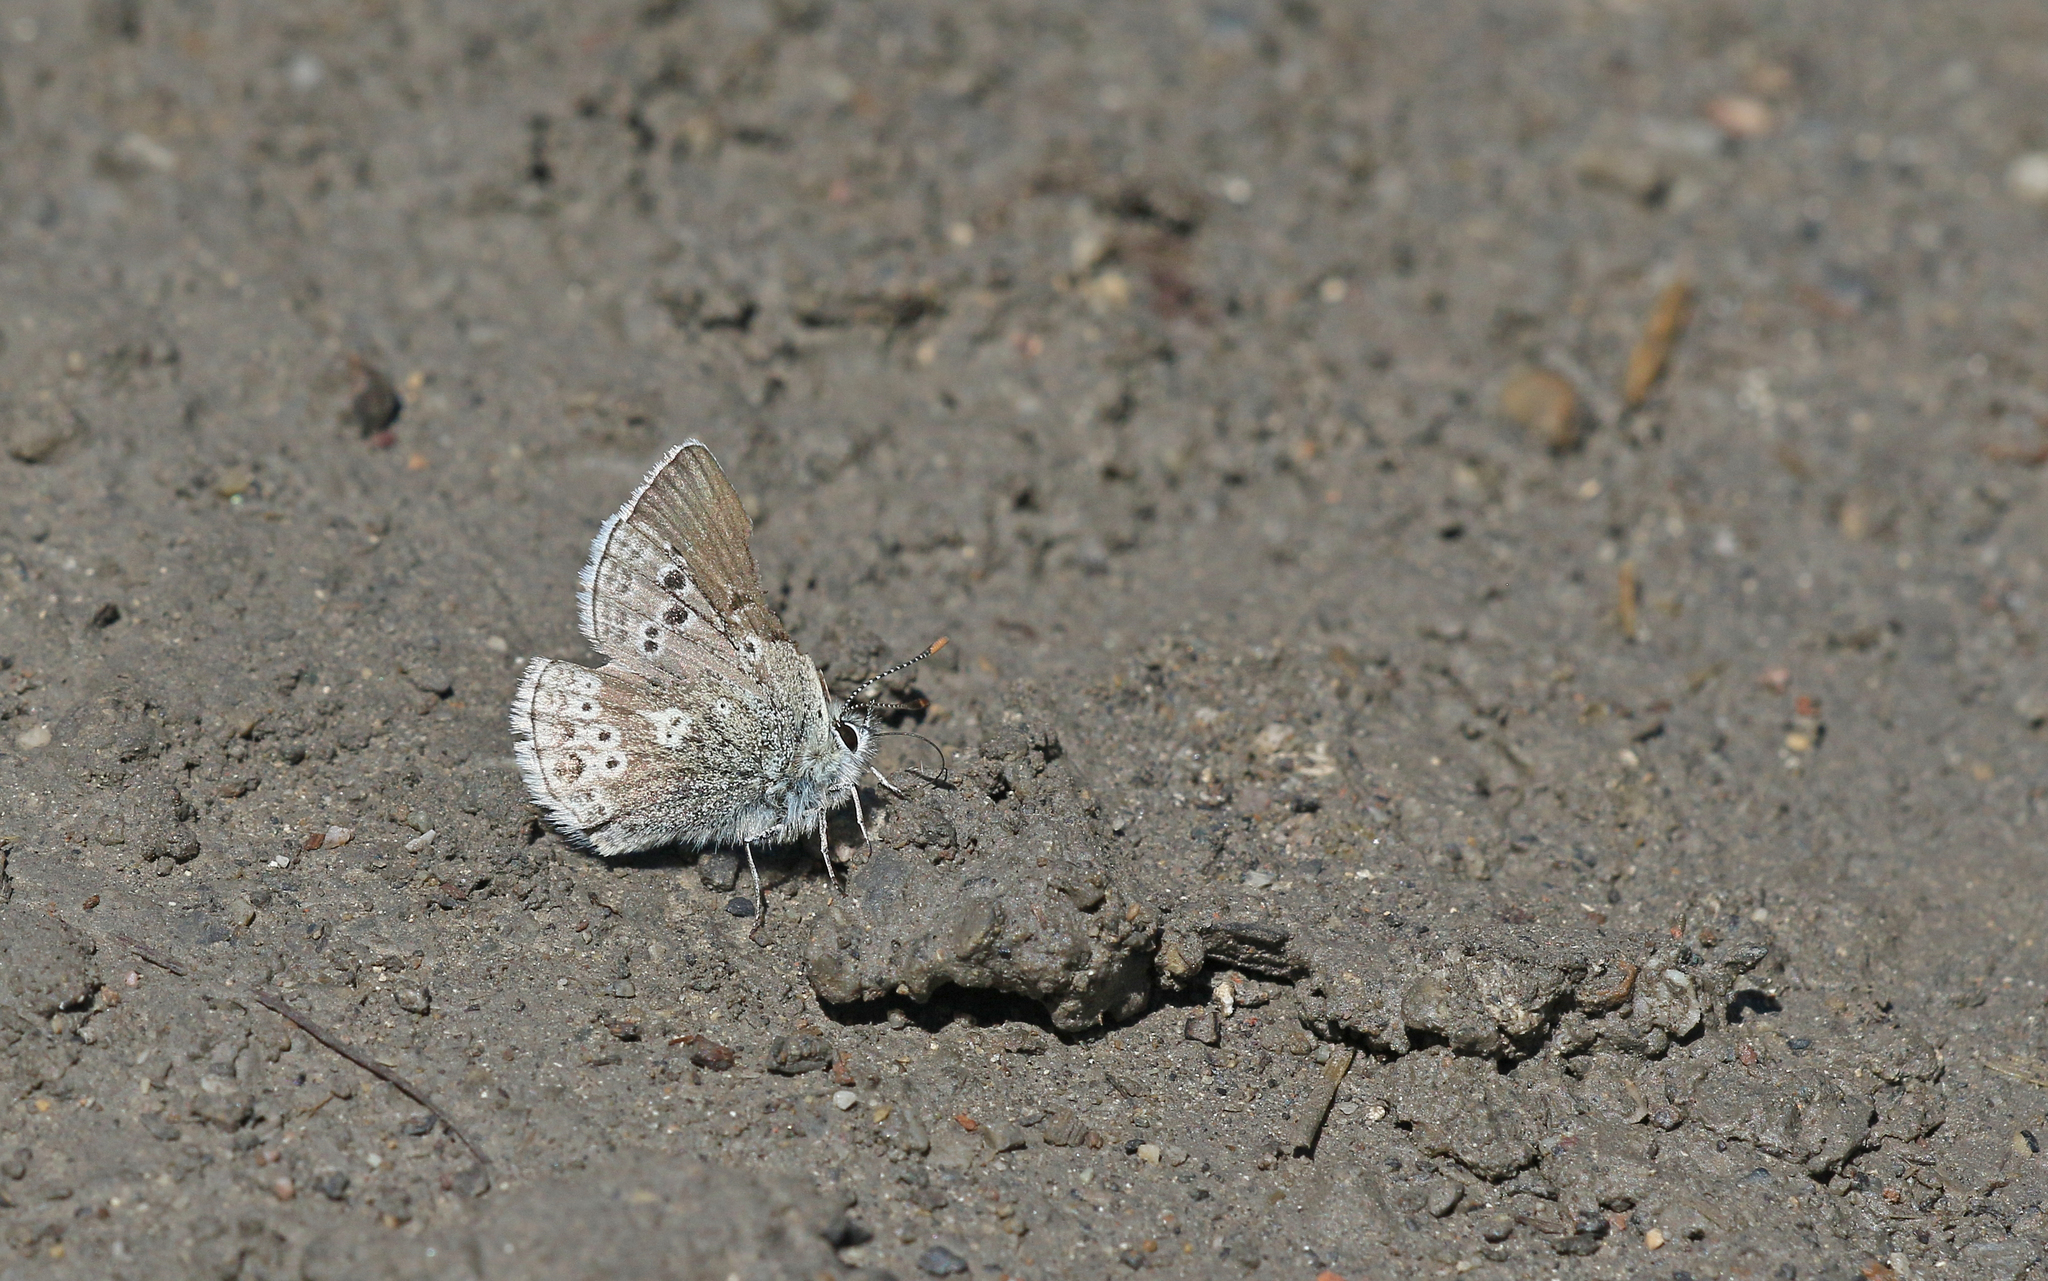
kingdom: Animalia
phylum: Arthropoda
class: Insecta
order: Lepidoptera
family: Lycaenidae
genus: Agriades
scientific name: Agriades glandon
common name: Glandon blue
